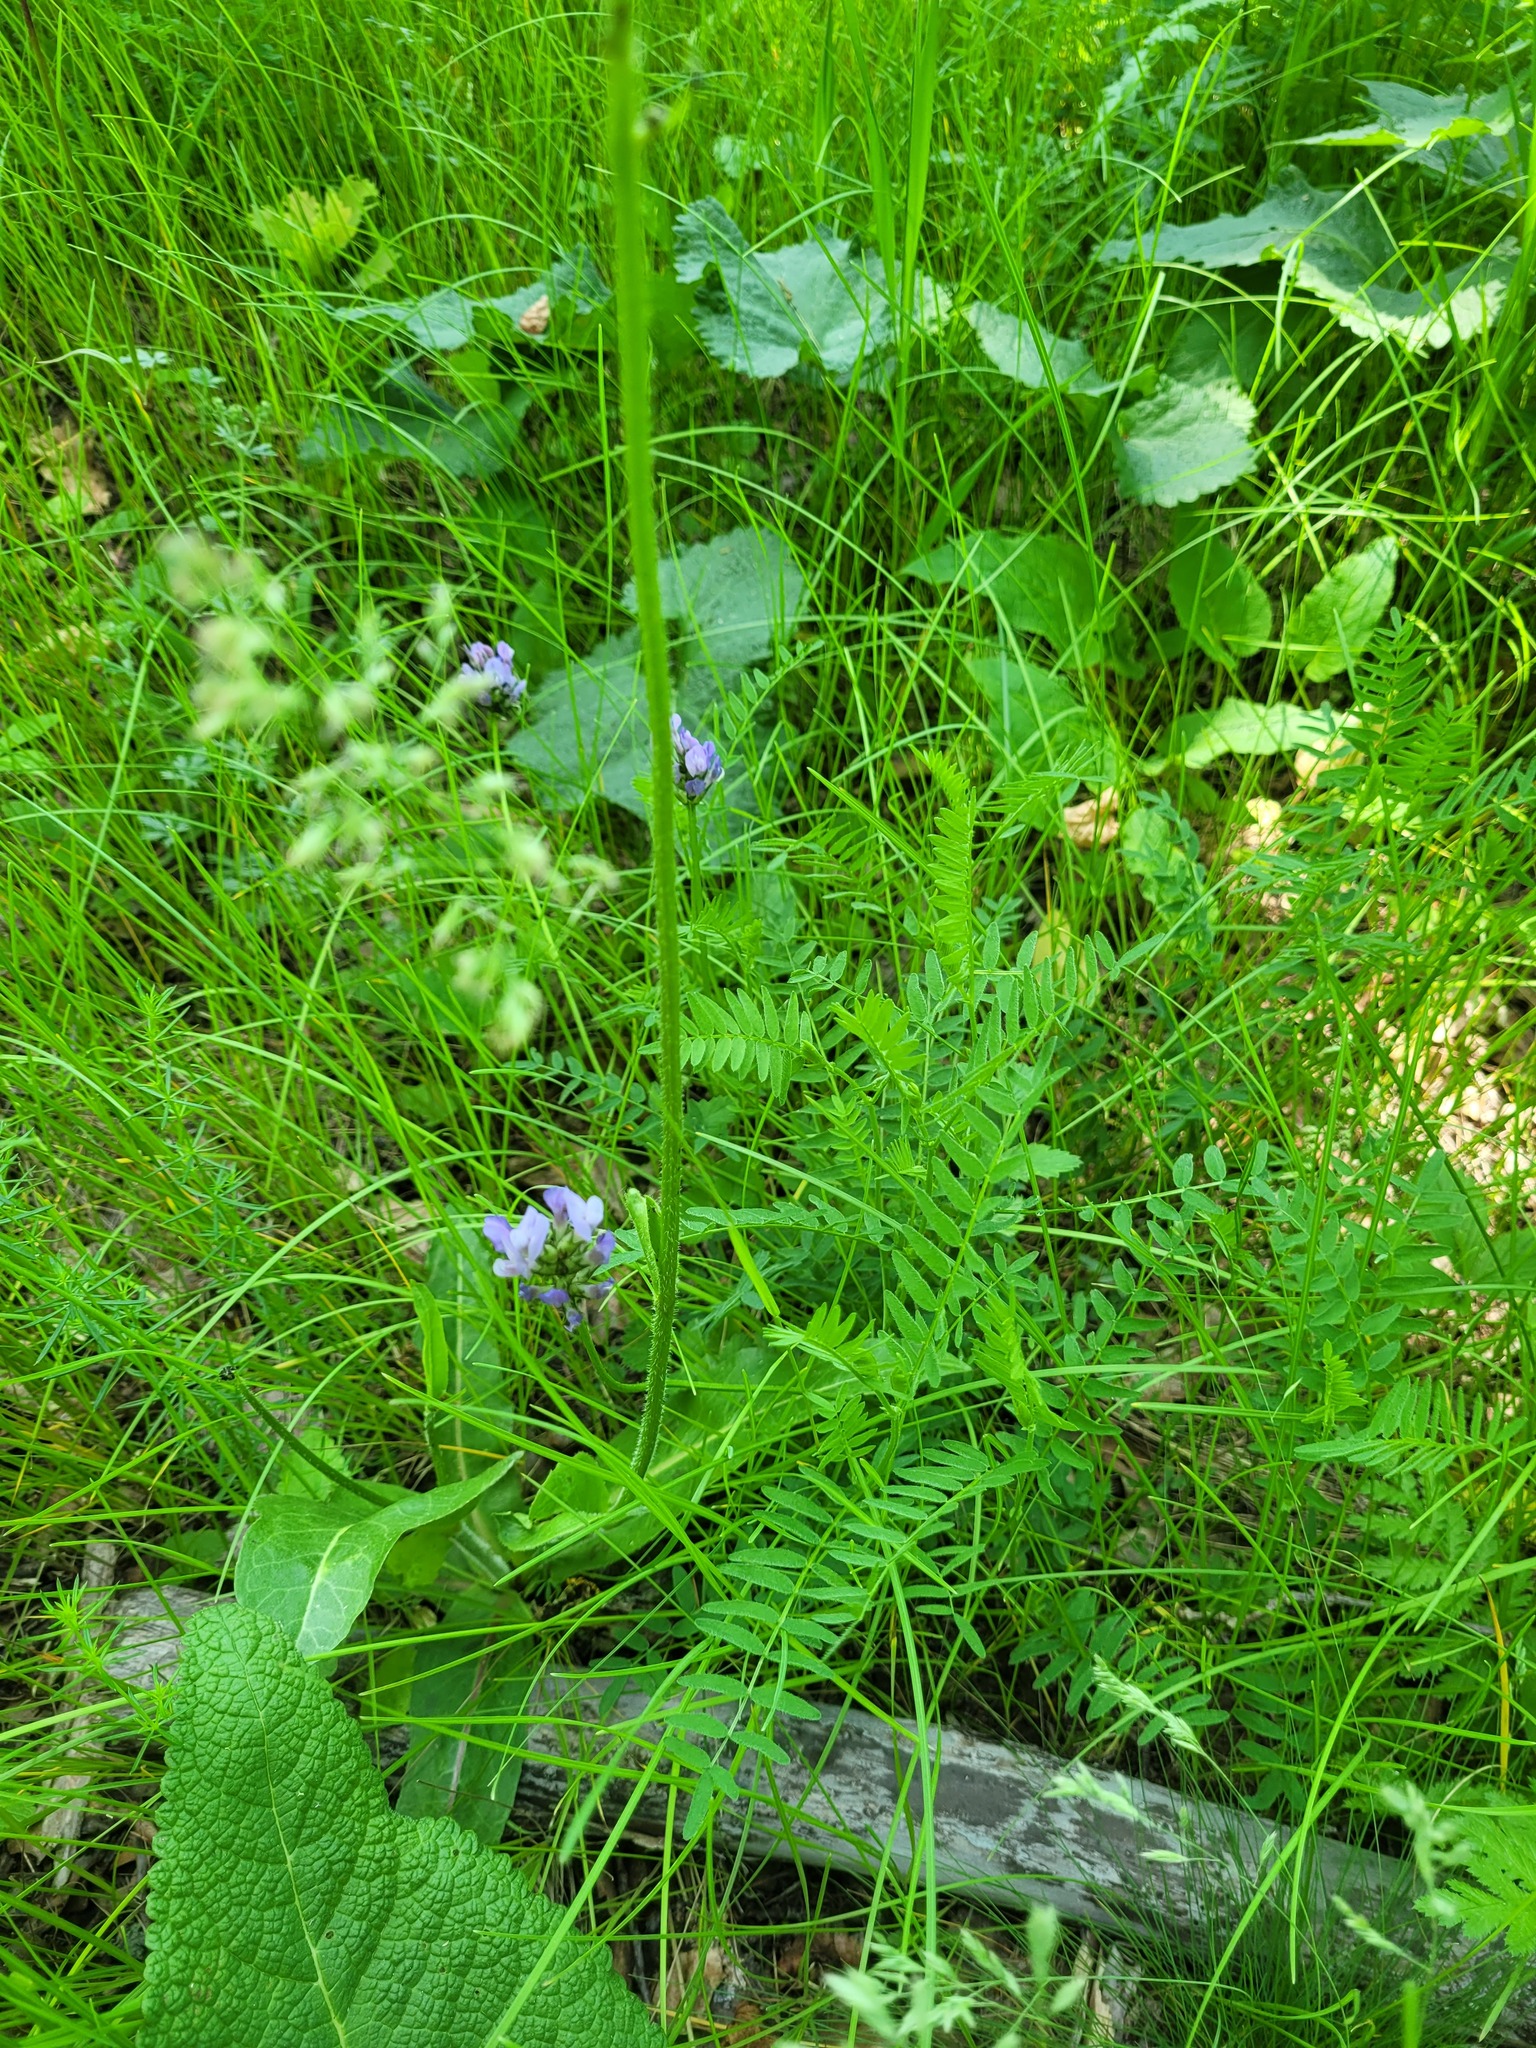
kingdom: Plantae
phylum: Tracheophyta
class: Magnoliopsida
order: Fabales
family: Fabaceae
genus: Astragalus
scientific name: Astragalus danicus
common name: Purple milk-vetch
